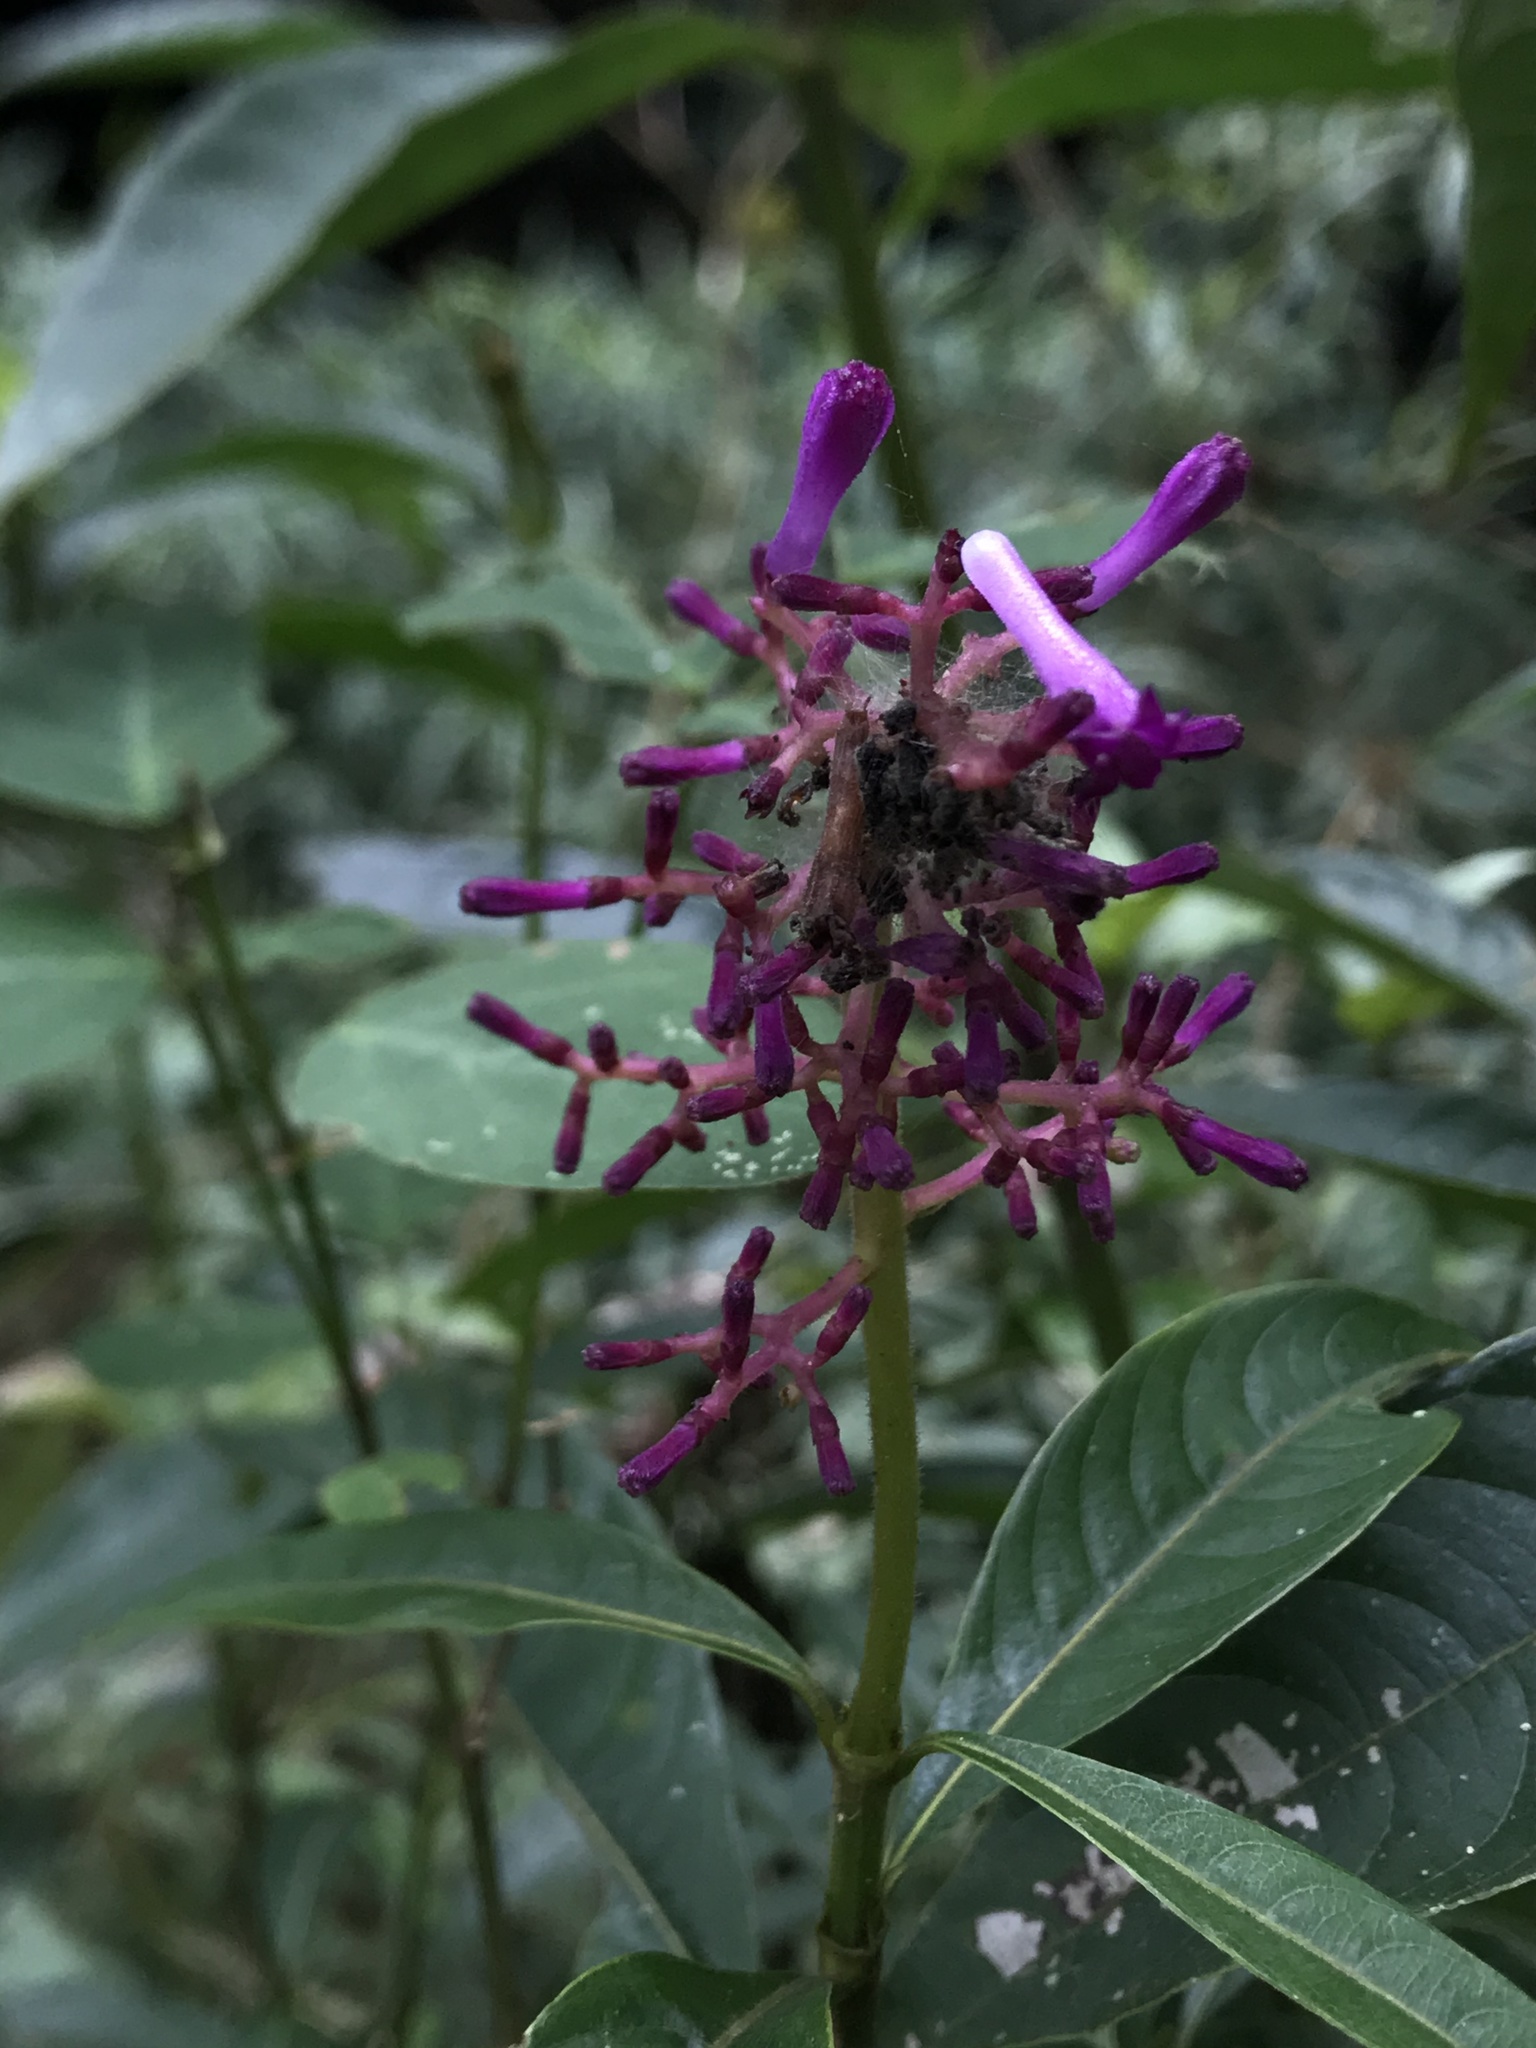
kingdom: Plantae
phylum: Tracheophyta
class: Magnoliopsida
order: Gentianales
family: Rubiaceae
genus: Palicourea
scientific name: Palicourea angustifolia
